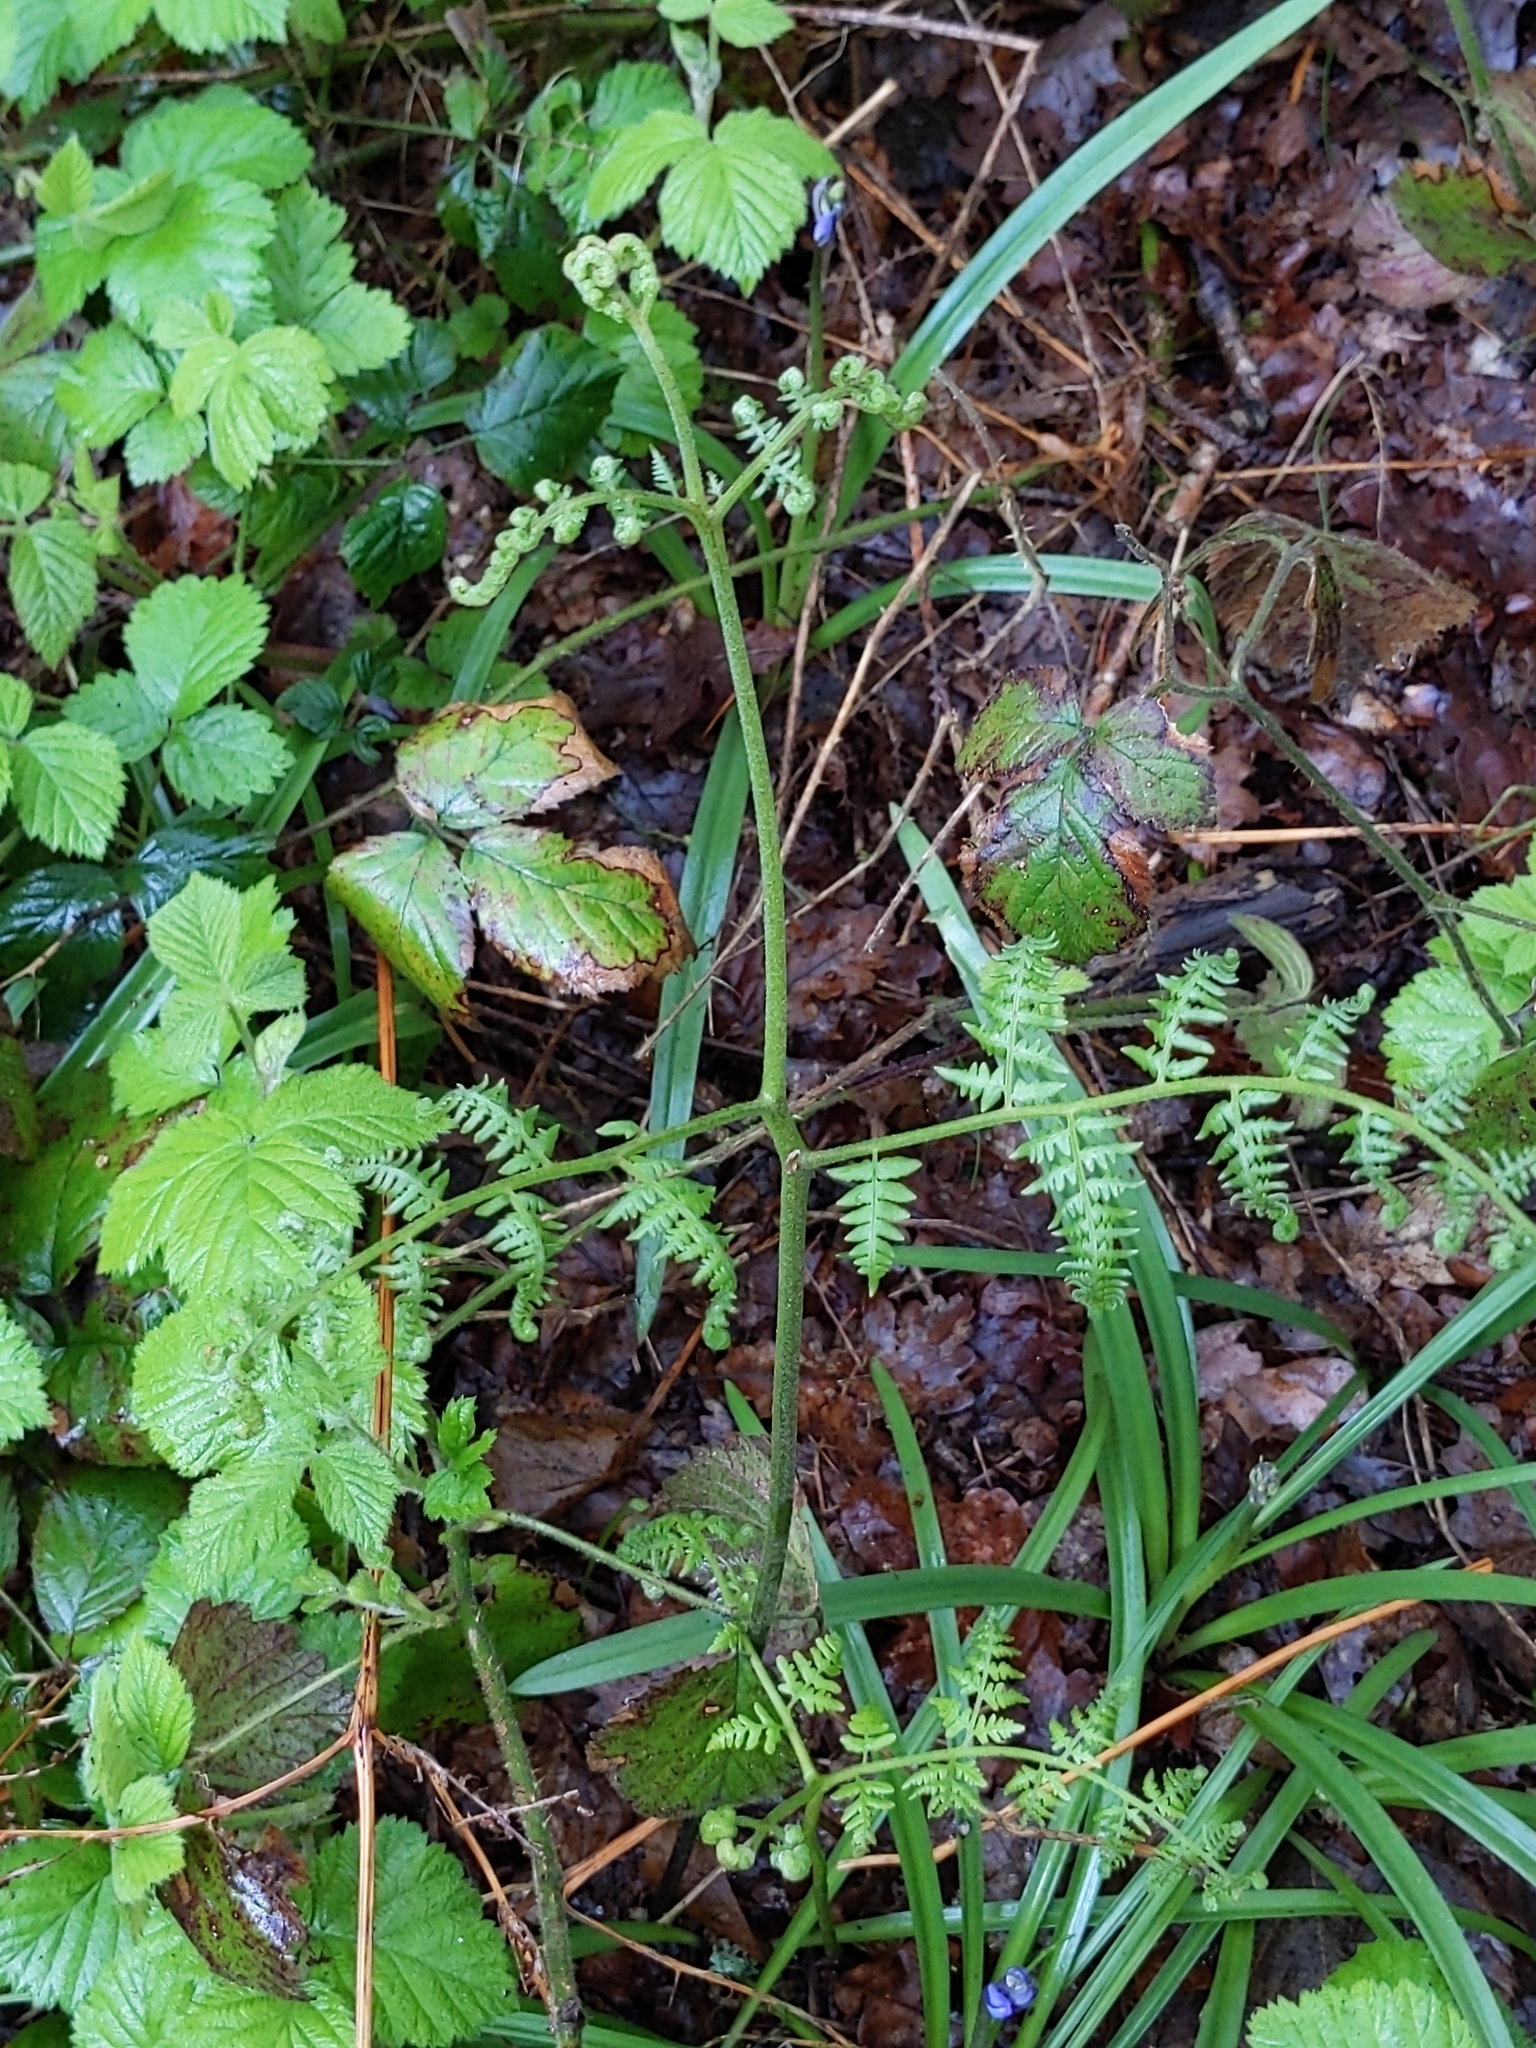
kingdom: Plantae
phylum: Tracheophyta
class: Polypodiopsida
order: Polypodiales
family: Dennstaedtiaceae
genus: Pteridium
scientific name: Pteridium aquilinum
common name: Bracken
